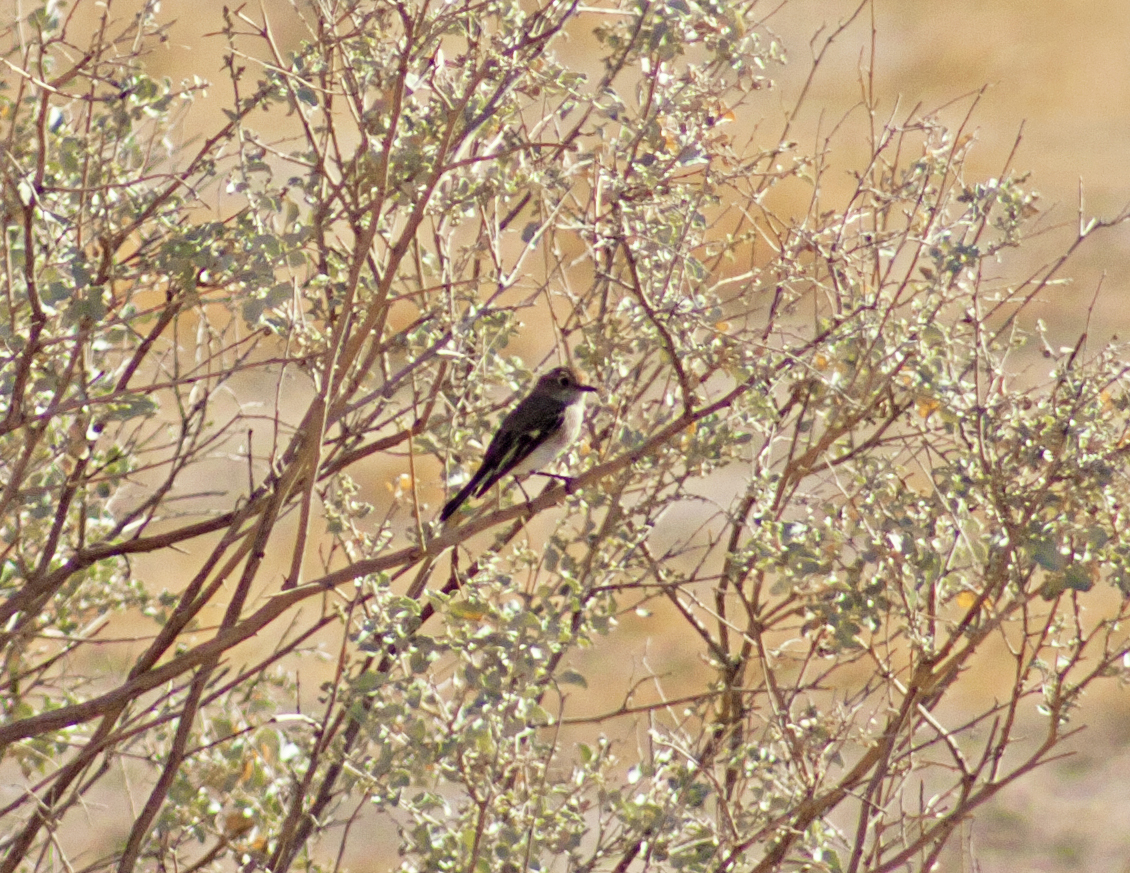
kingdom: Animalia
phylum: Chordata
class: Aves
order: Passeriformes
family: Petroicidae
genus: Petroica
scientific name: Petroica goodenovii
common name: Red-capped robin
